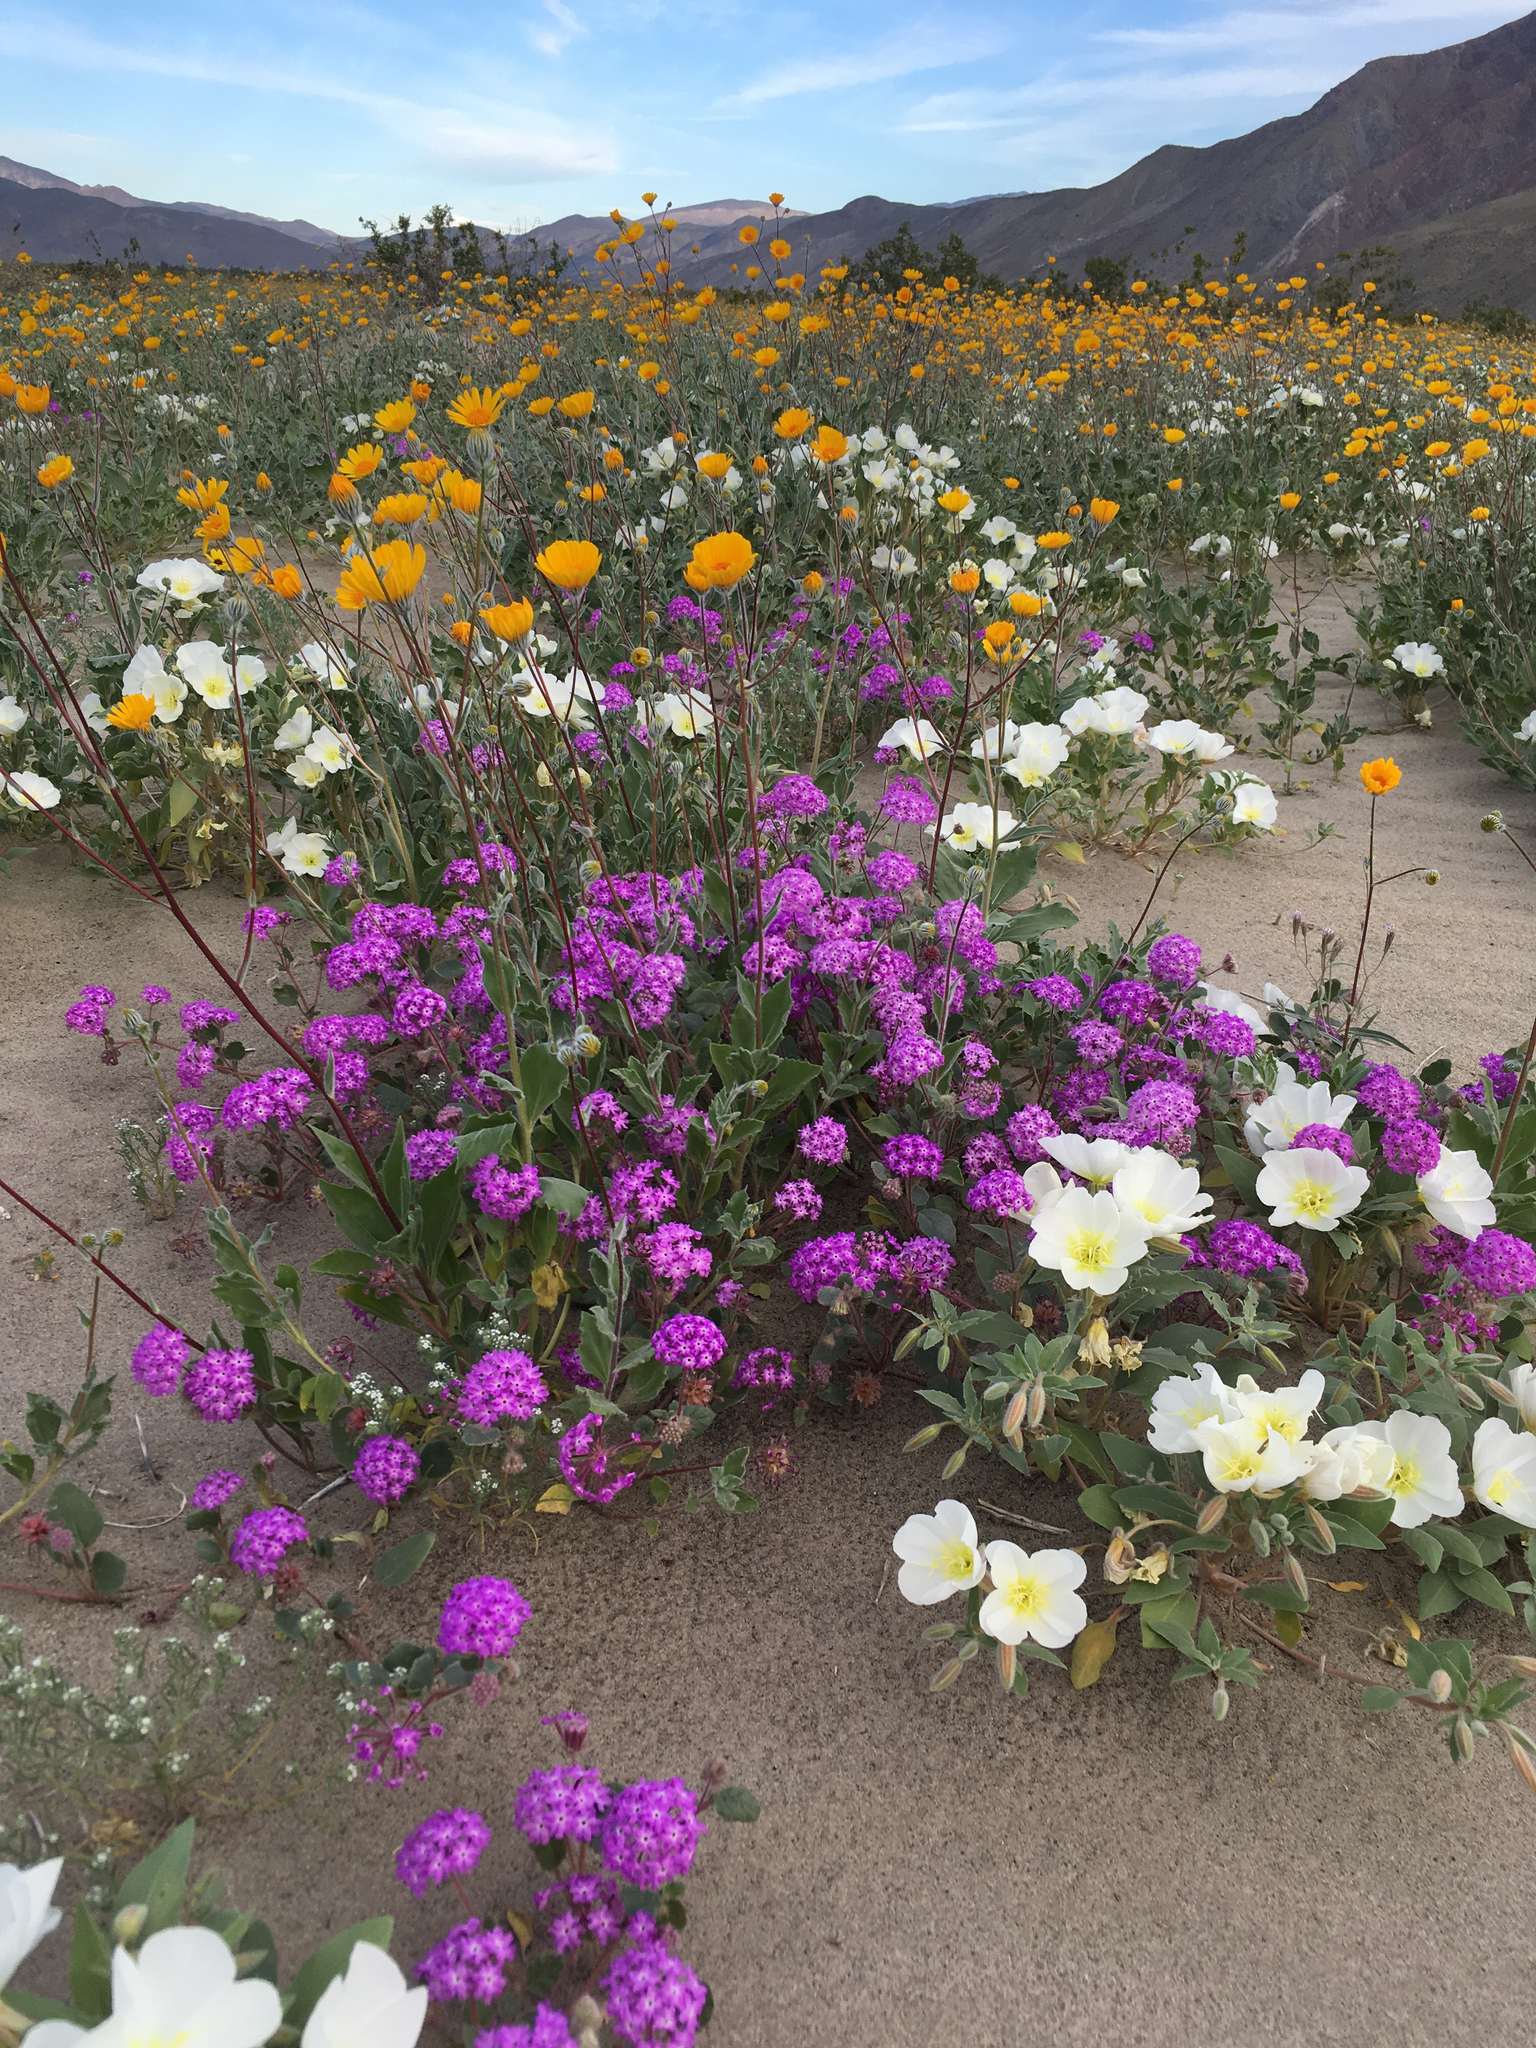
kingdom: Plantae
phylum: Tracheophyta
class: Magnoliopsida
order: Caryophyllales
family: Nyctaginaceae
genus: Abronia
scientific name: Abronia villosa
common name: Desert sand-verbena
